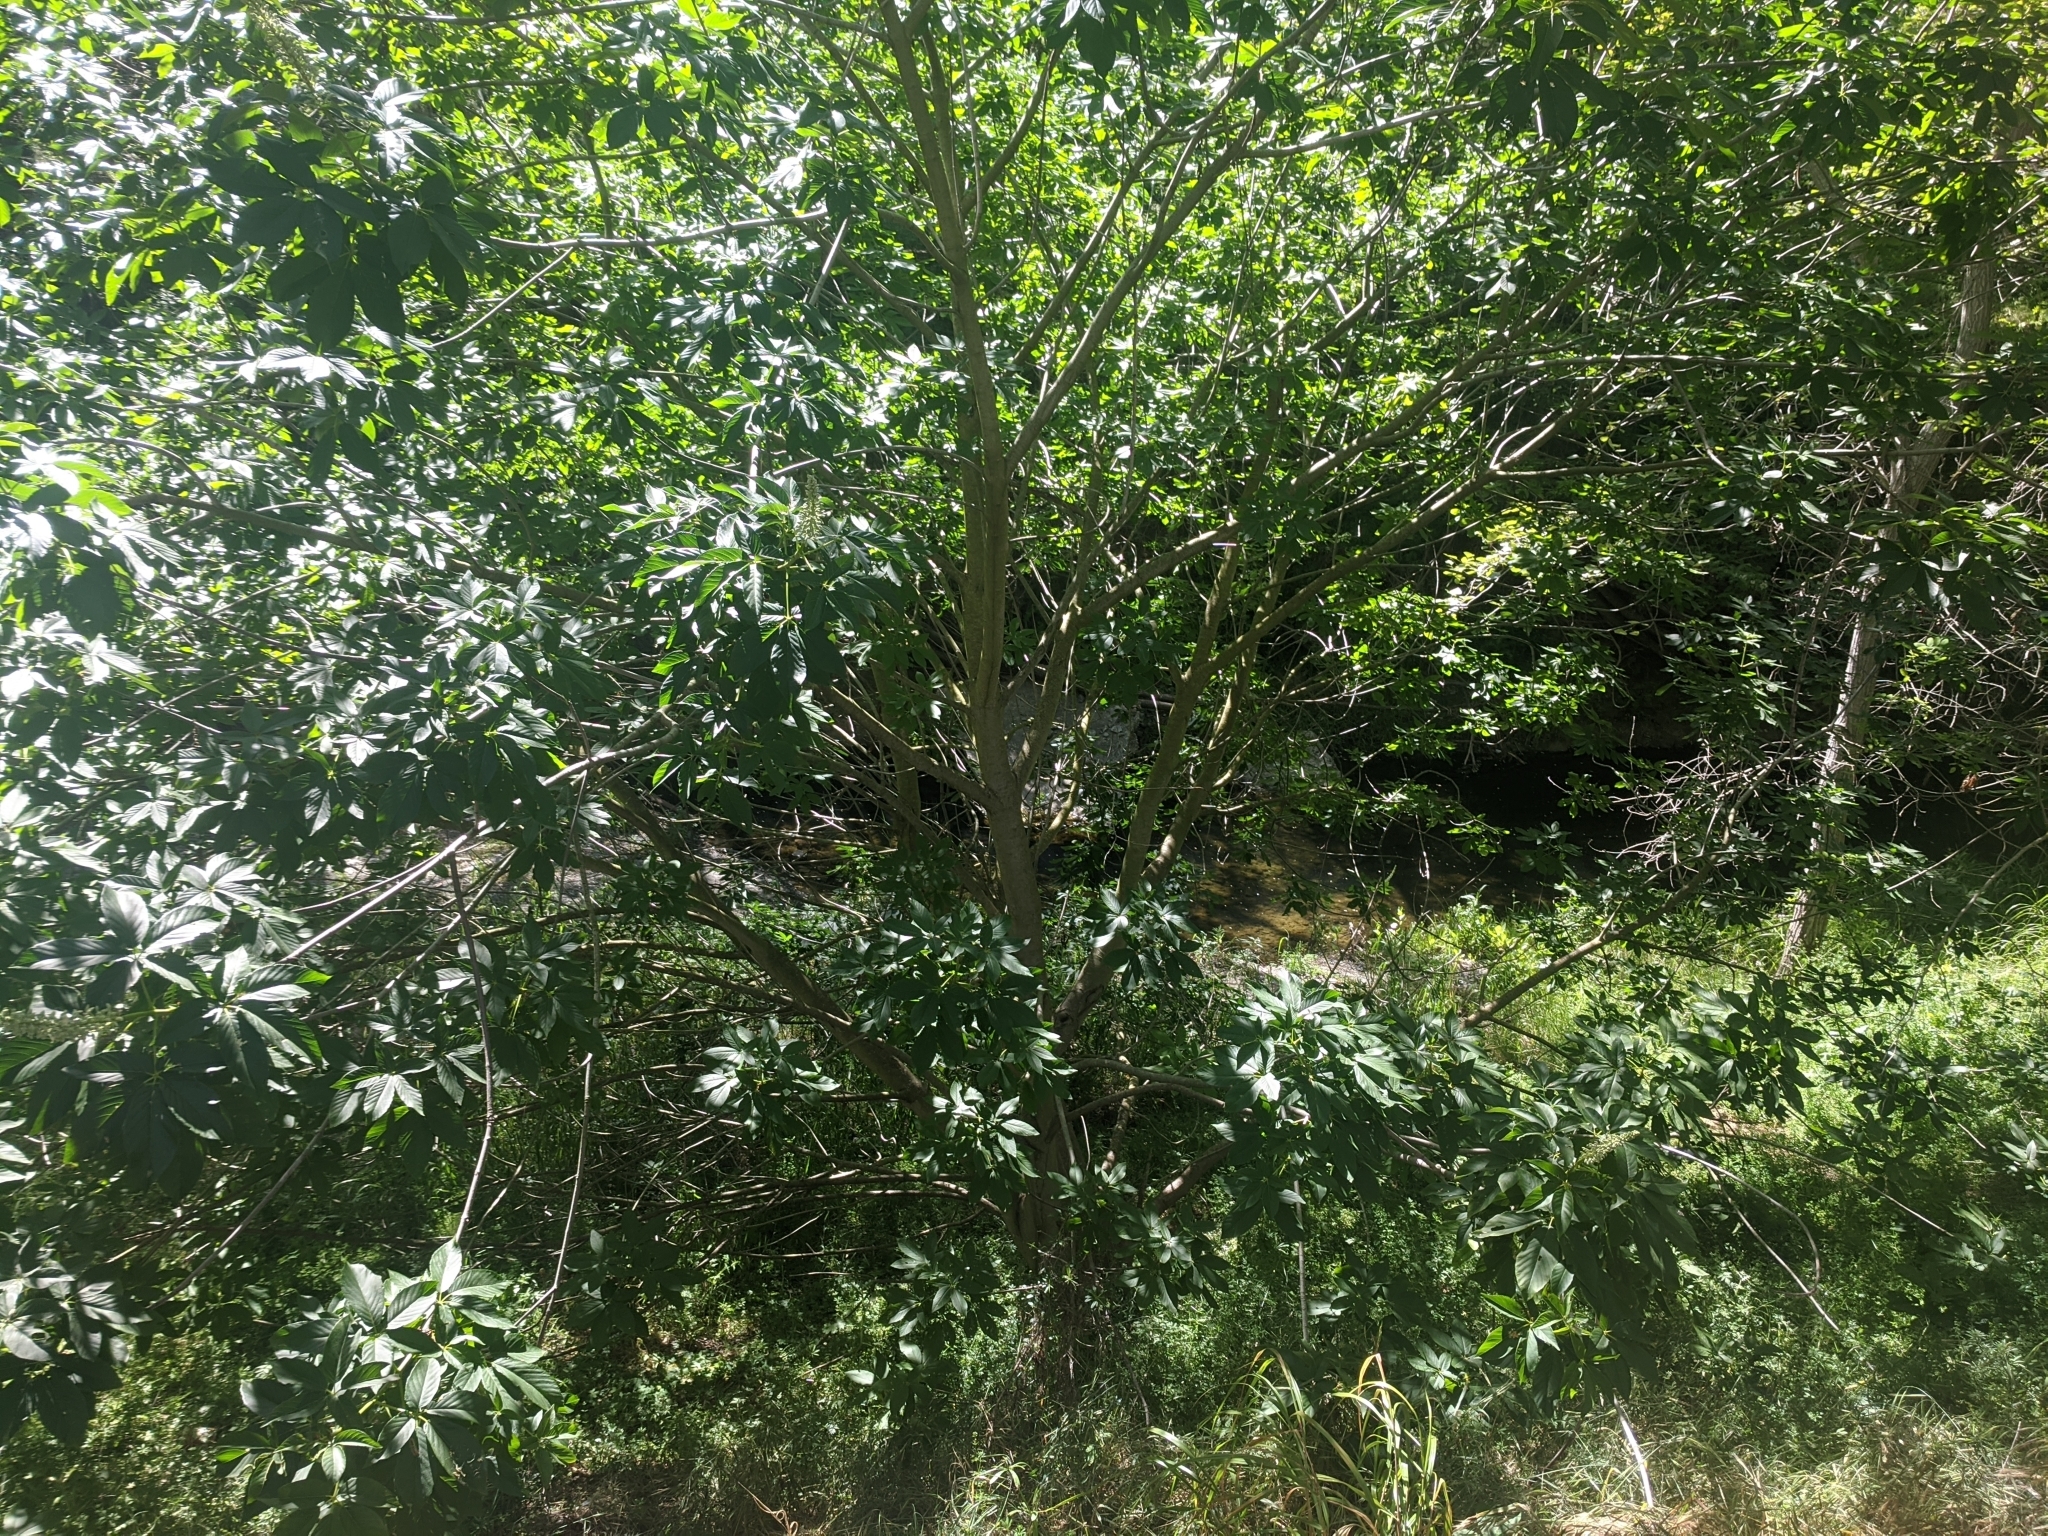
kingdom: Plantae
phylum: Tracheophyta
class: Magnoliopsida
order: Sapindales
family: Sapindaceae
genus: Aesculus
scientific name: Aesculus californica
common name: California buckeye
